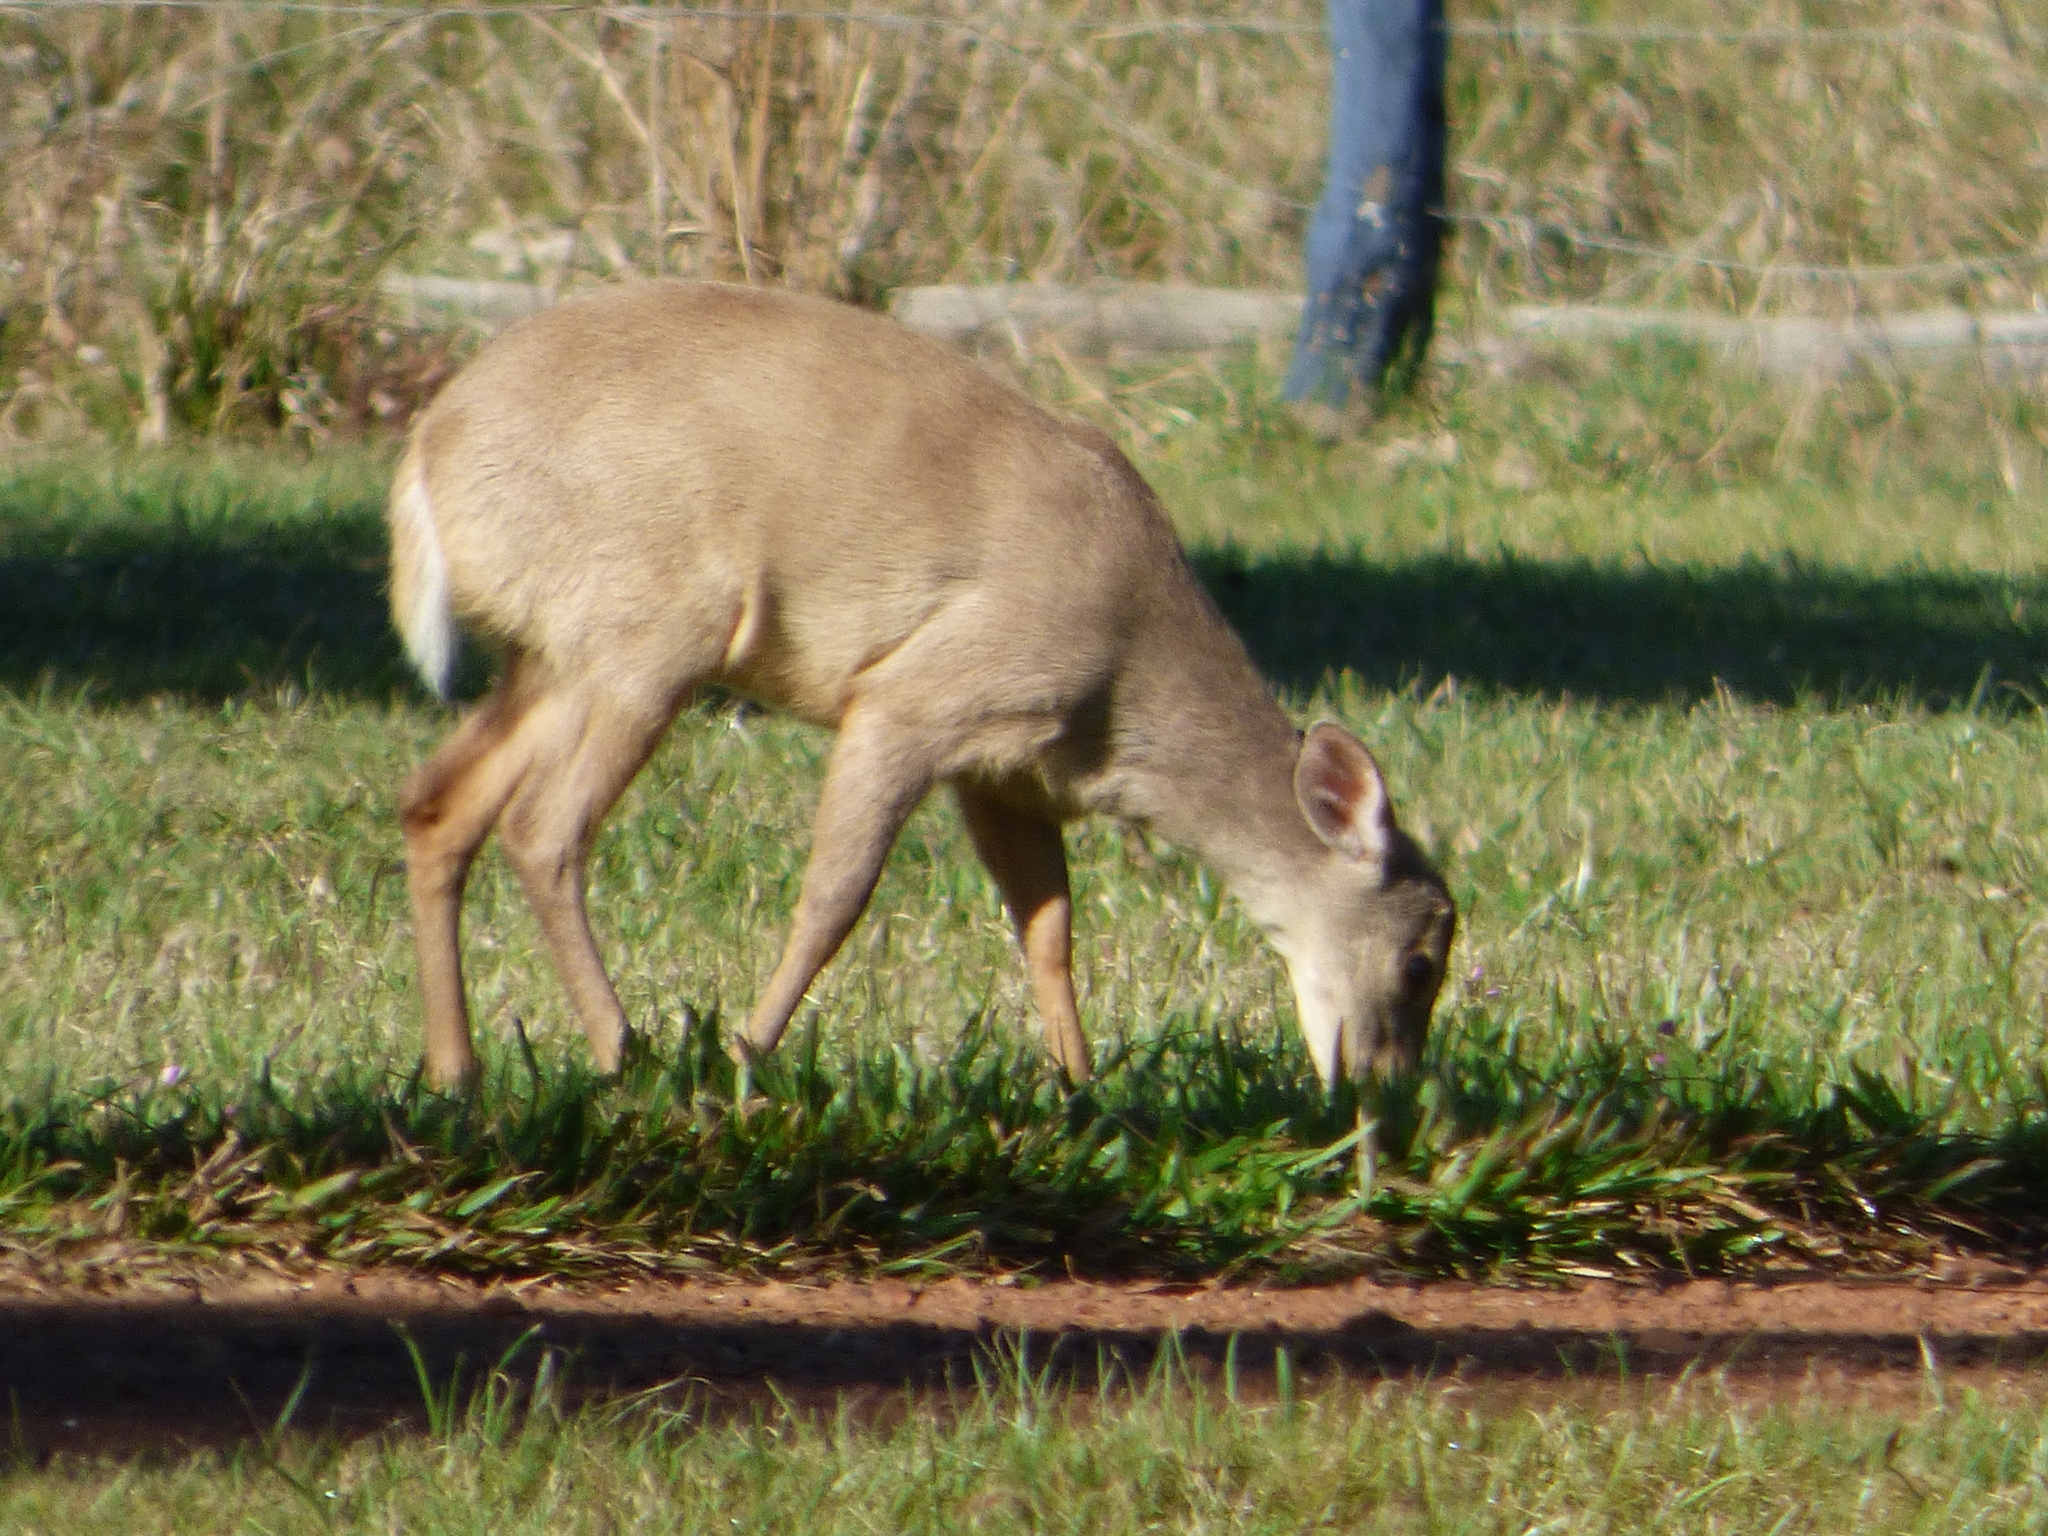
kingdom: Animalia
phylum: Chordata
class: Mammalia
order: Artiodactyla
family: Cervidae
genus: Mazama
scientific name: Mazama gouazoubira
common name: Gray brocket
